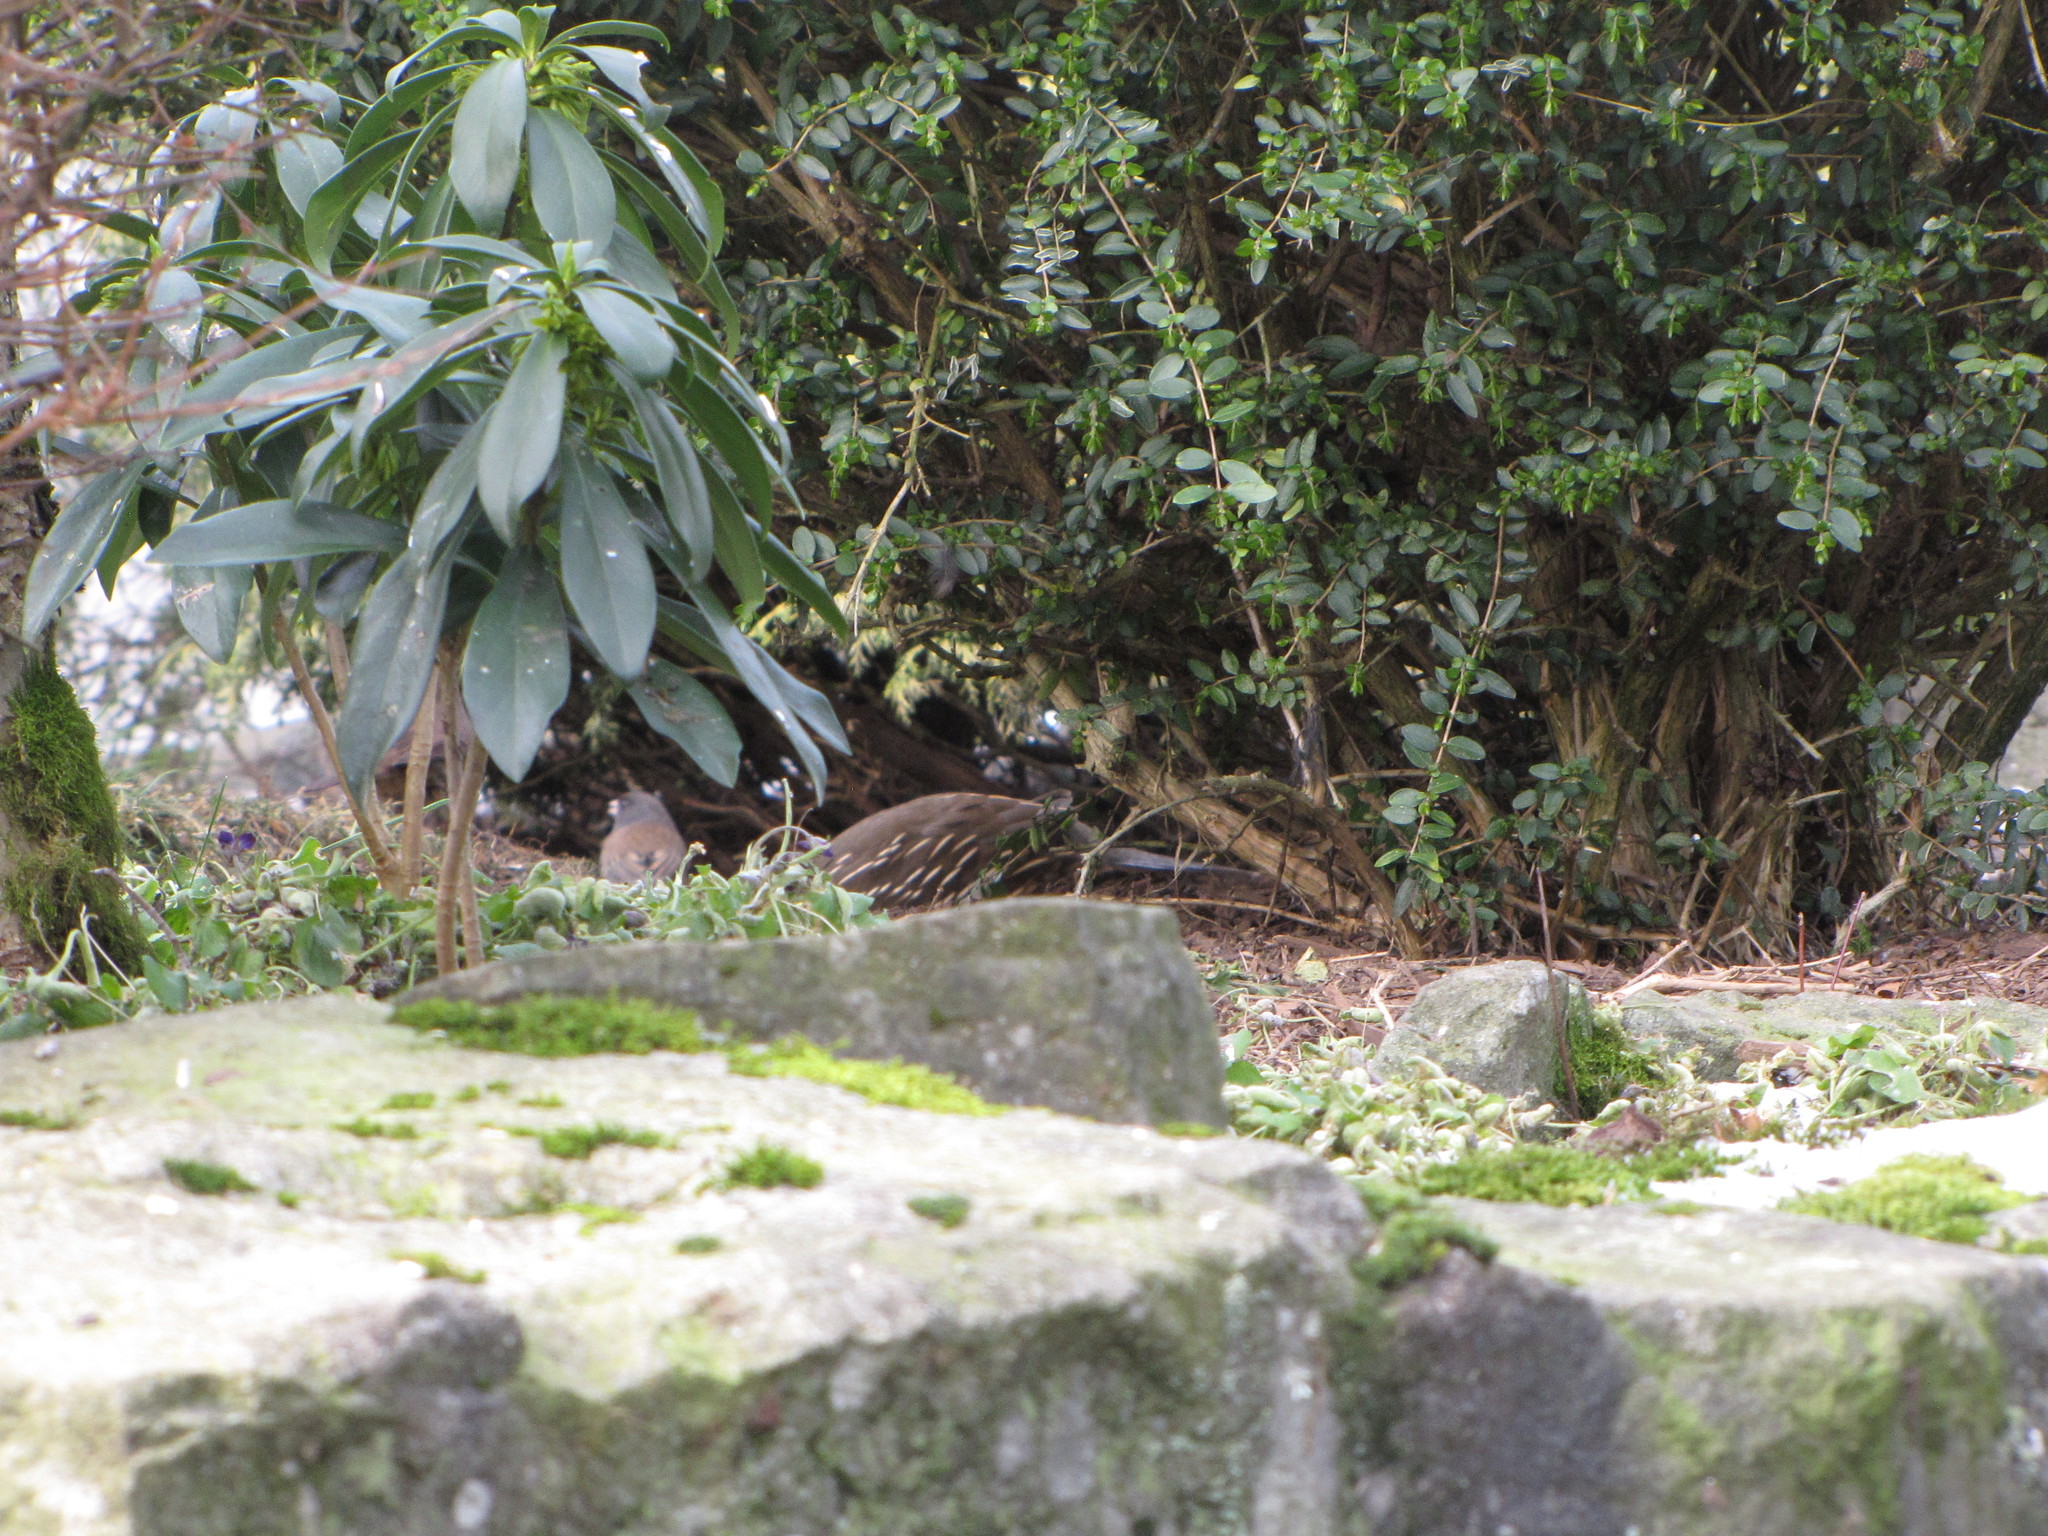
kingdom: Animalia
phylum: Chordata
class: Aves
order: Galliformes
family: Odontophoridae
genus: Callipepla
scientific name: Callipepla californica
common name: California quail
